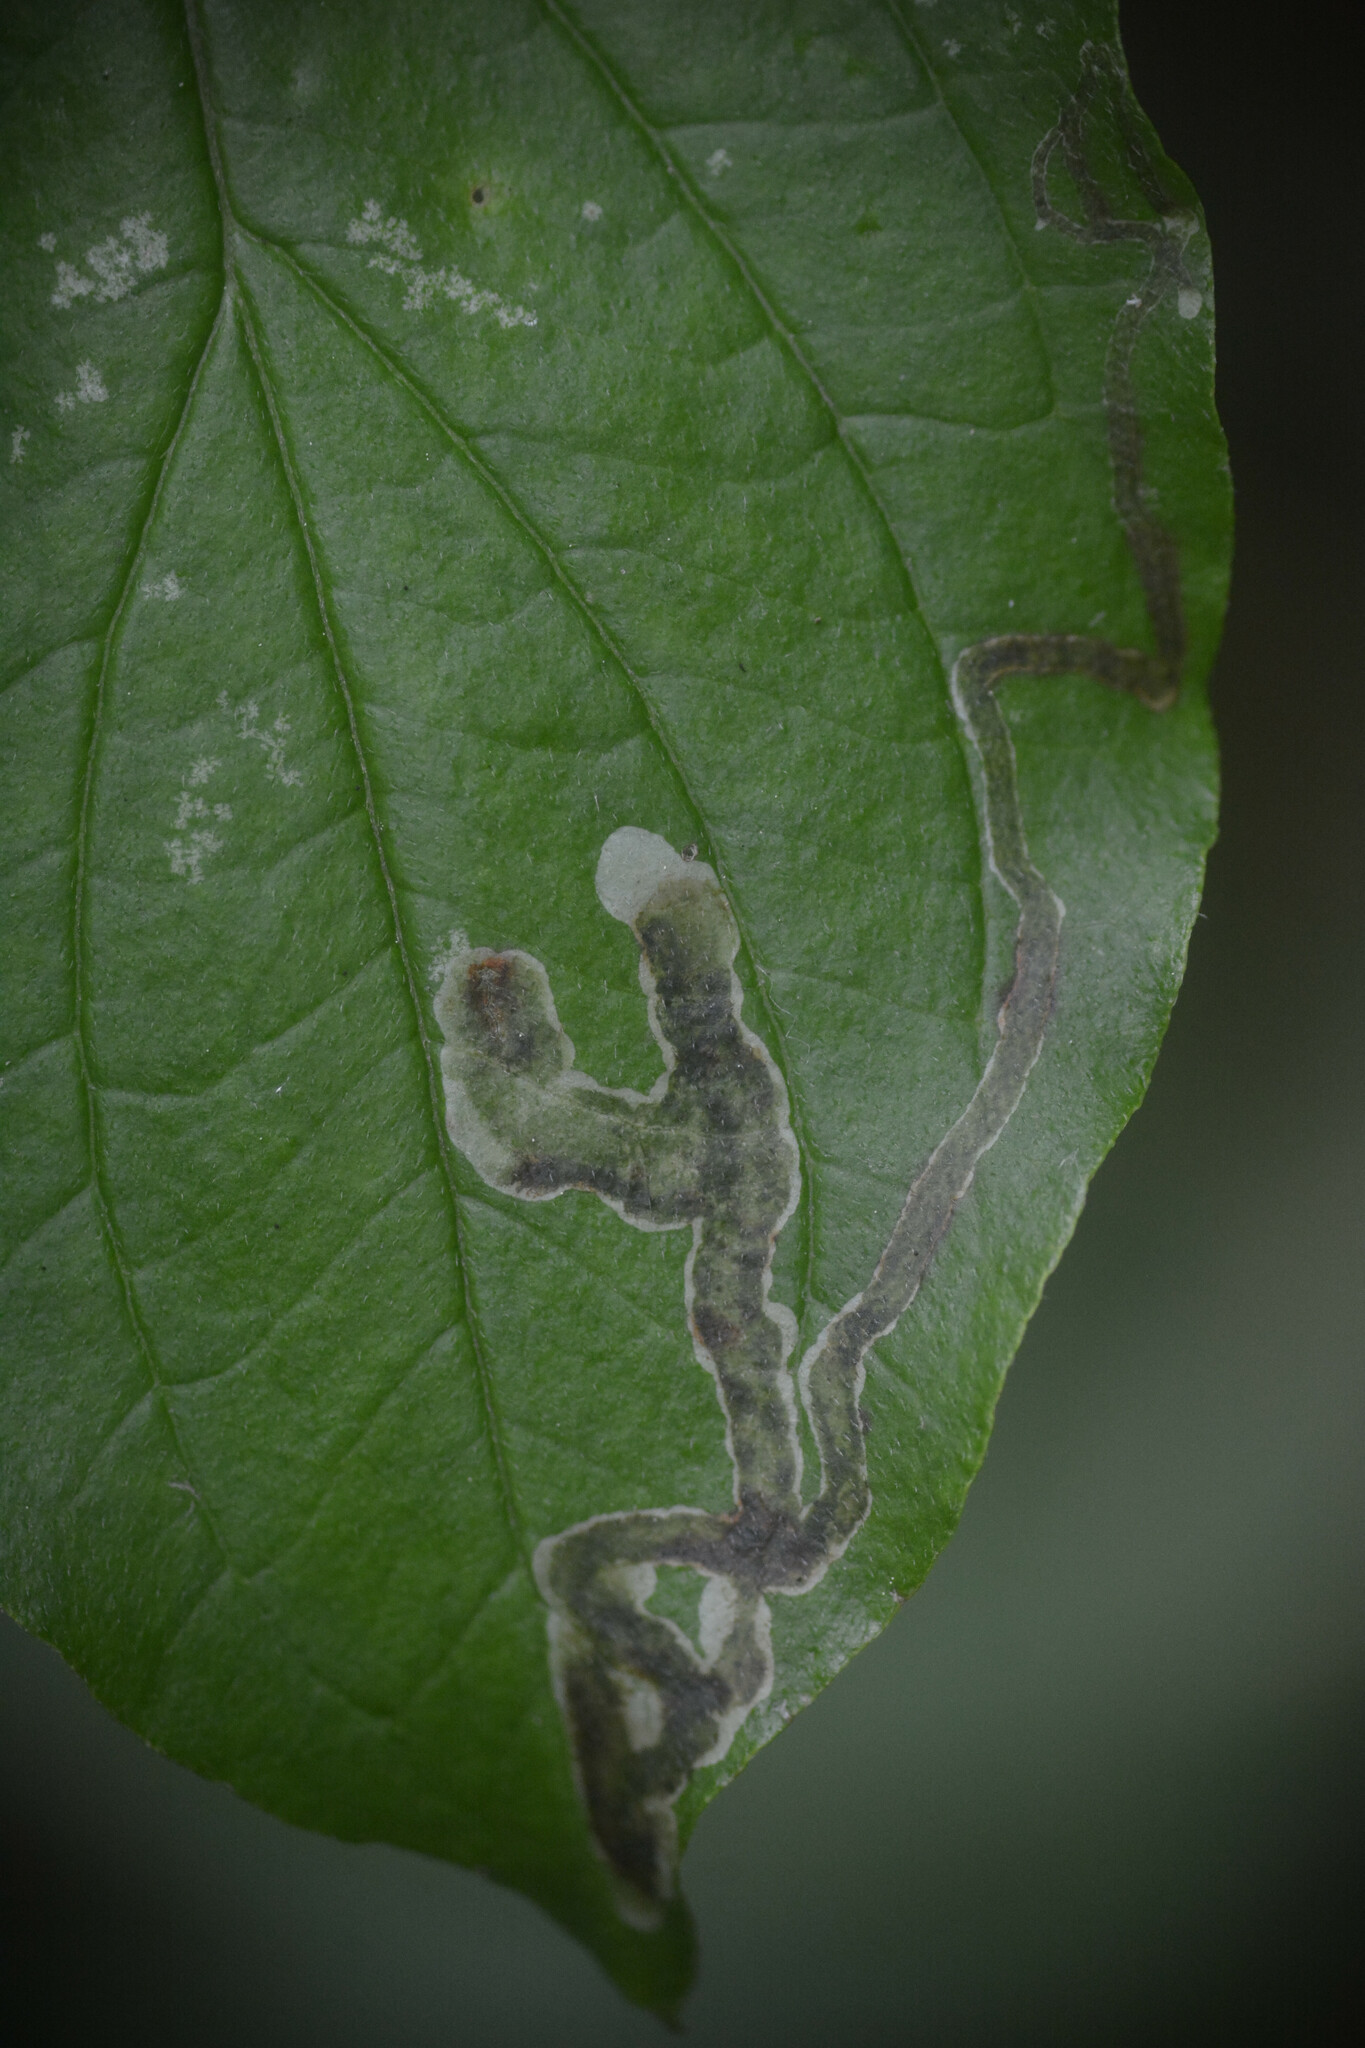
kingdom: Animalia
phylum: Arthropoda
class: Insecta
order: Diptera
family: Agromyzidae
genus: Phytomyza
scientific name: Phytomyza agromyzina
